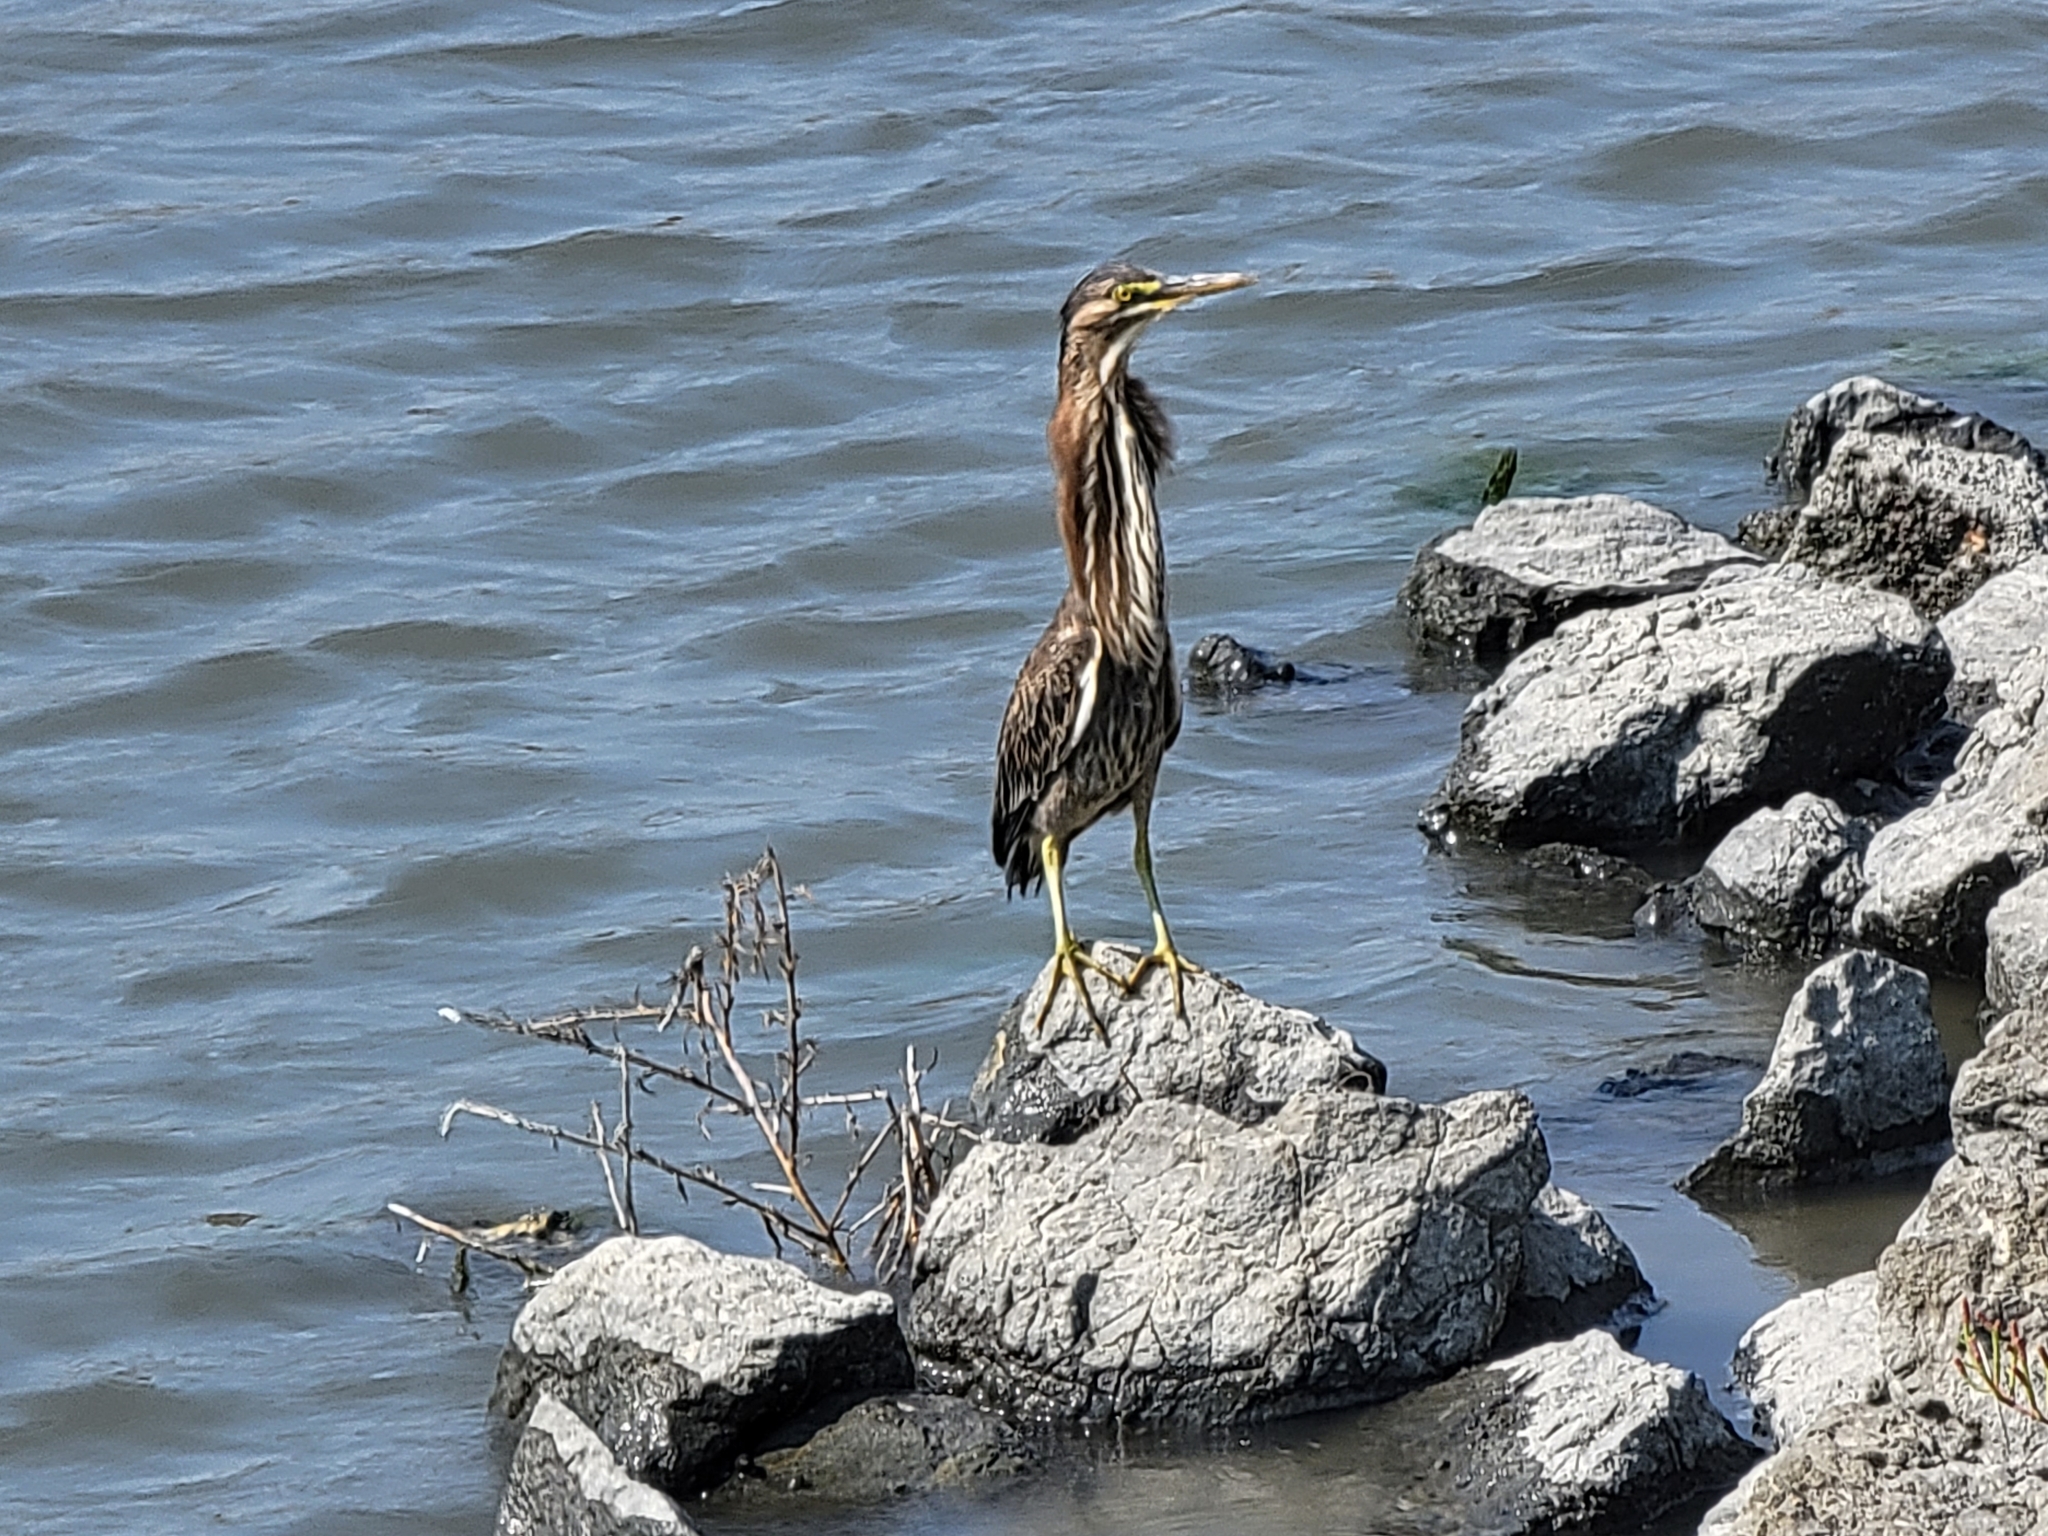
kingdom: Animalia
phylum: Chordata
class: Aves
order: Pelecaniformes
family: Ardeidae
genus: Butorides
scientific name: Butorides virescens
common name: Green heron
